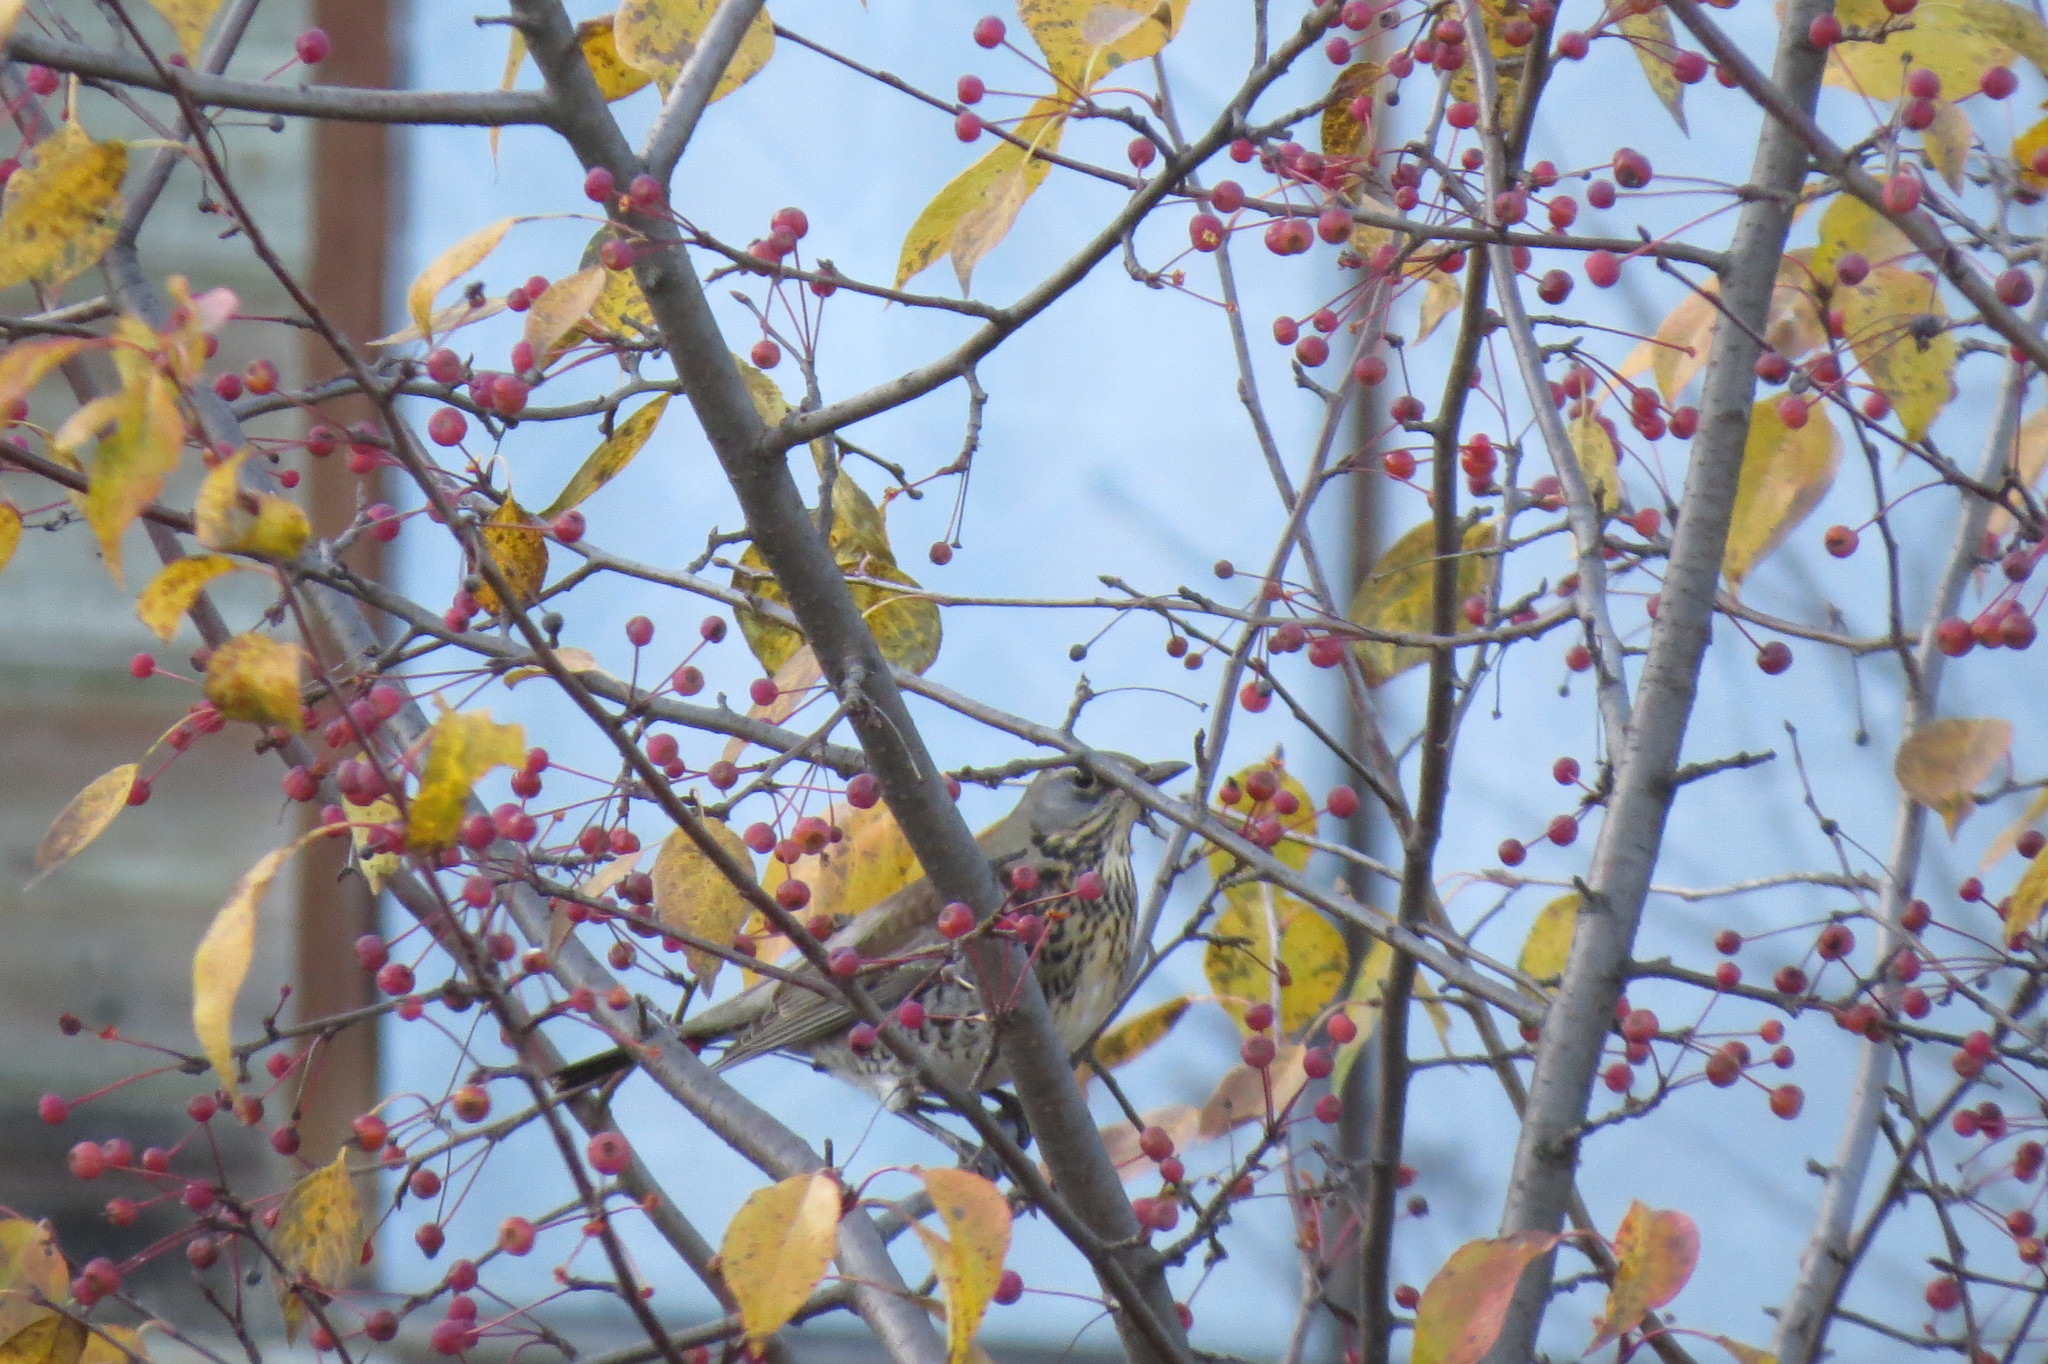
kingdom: Animalia
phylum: Chordata
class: Aves
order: Passeriformes
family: Turdidae
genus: Turdus
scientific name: Turdus pilaris
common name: Fieldfare
